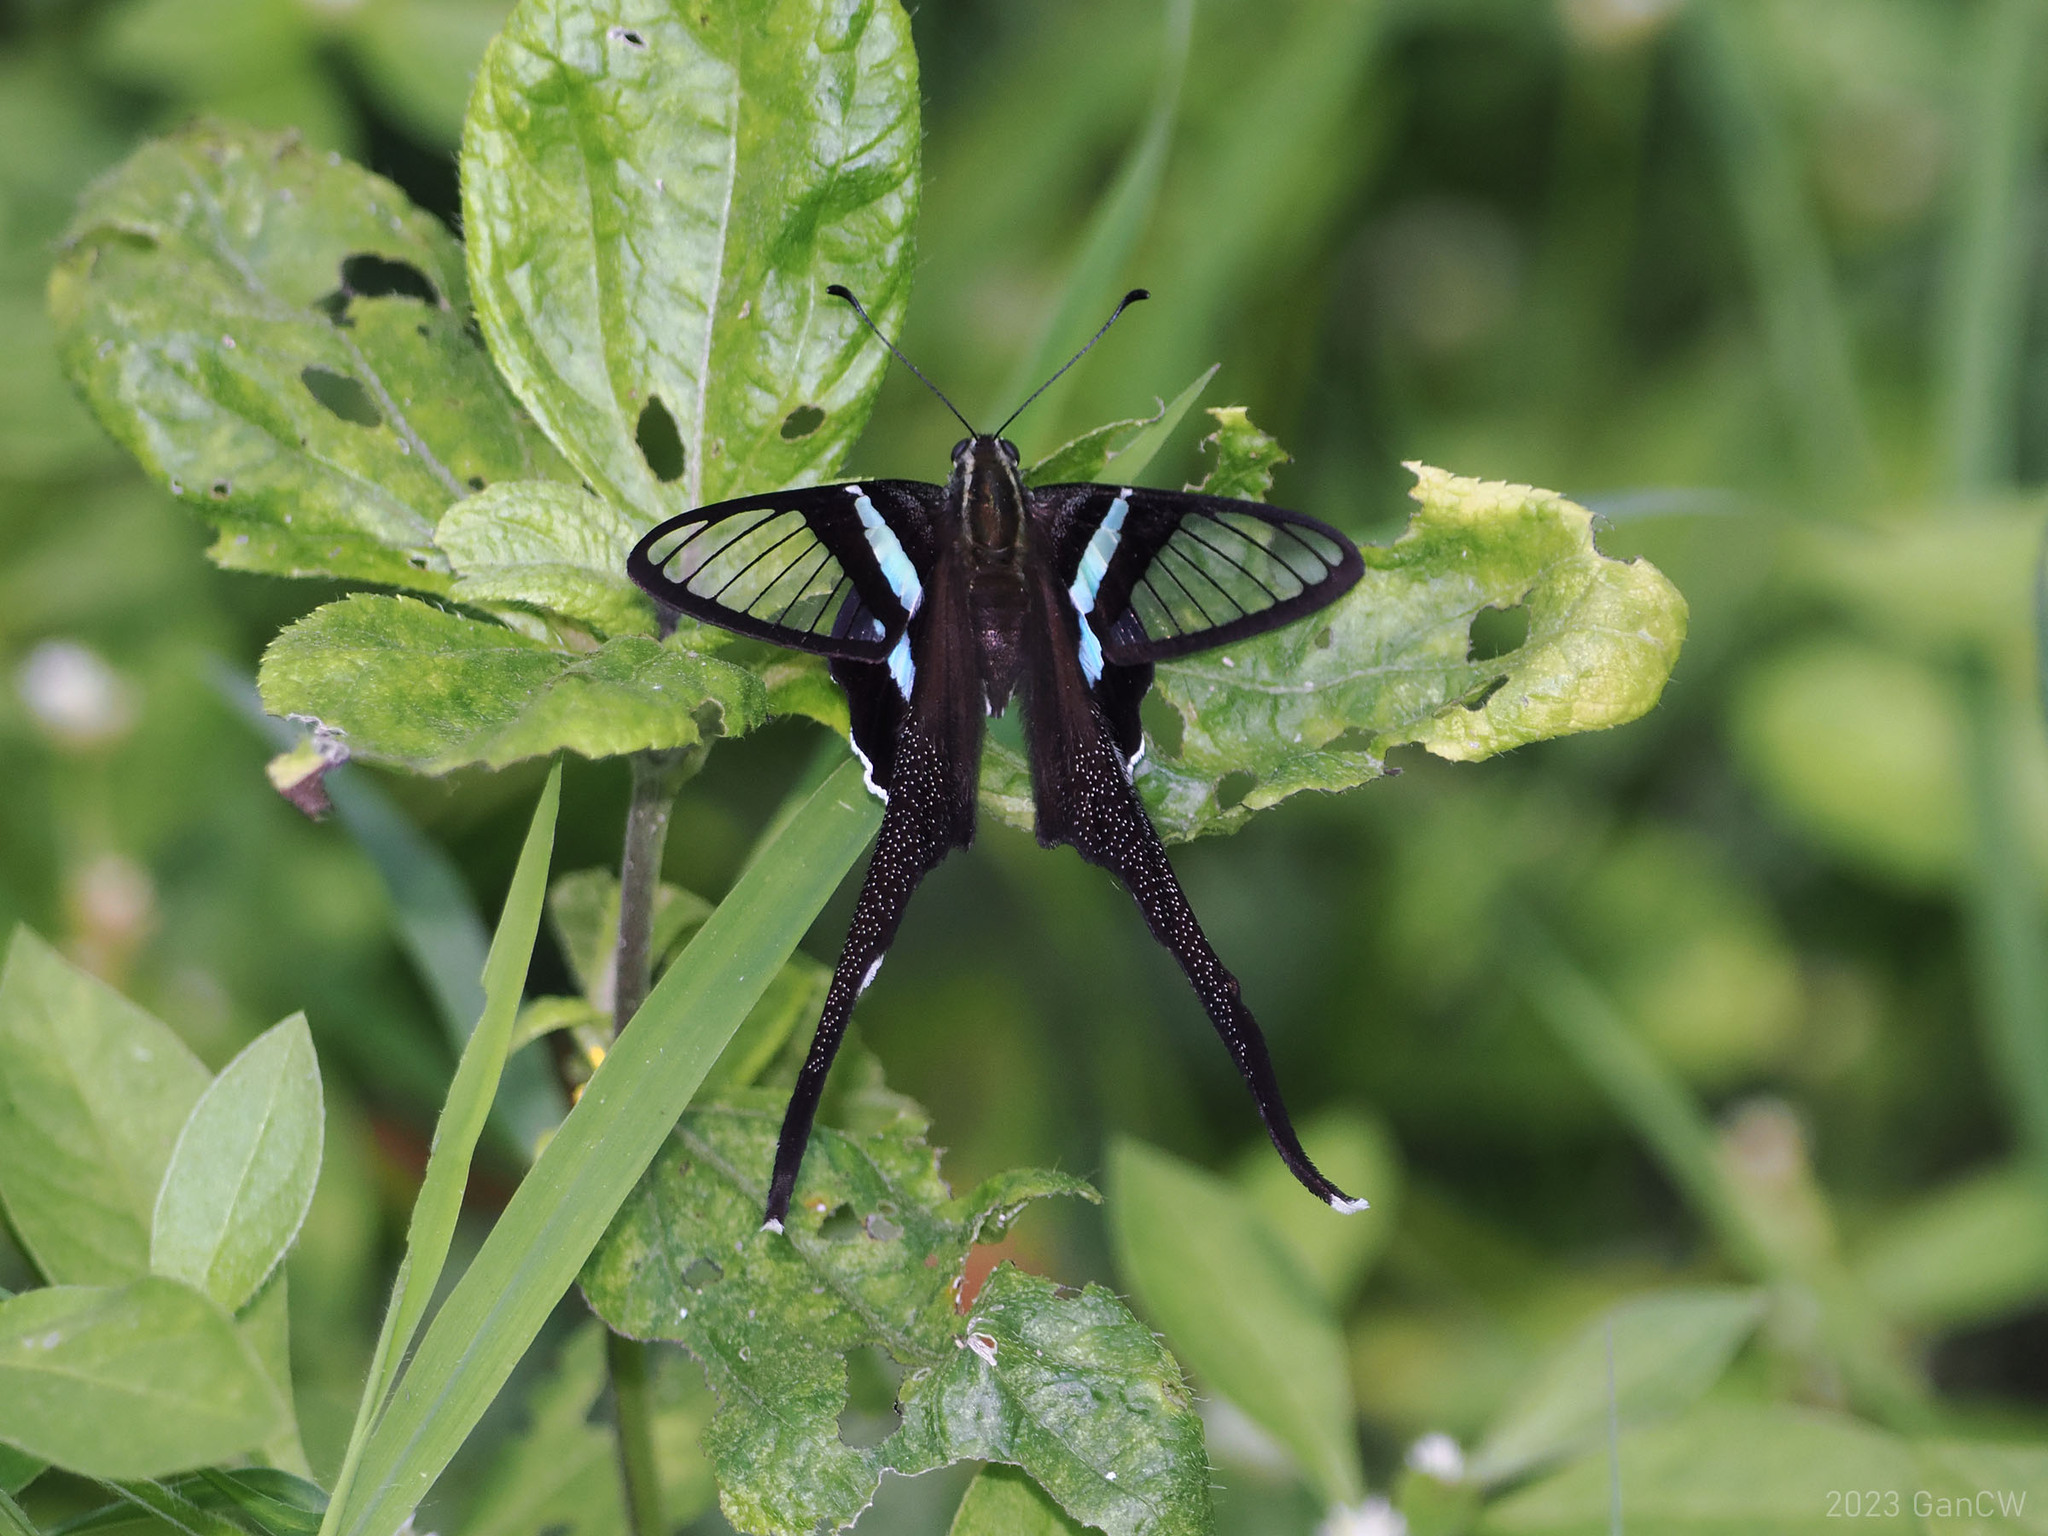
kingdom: Animalia
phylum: Arthropoda
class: Insecta
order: Lepidoptera
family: Papilionidae
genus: Lamproptera
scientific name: Lamproptera meges
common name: Green dragontail
